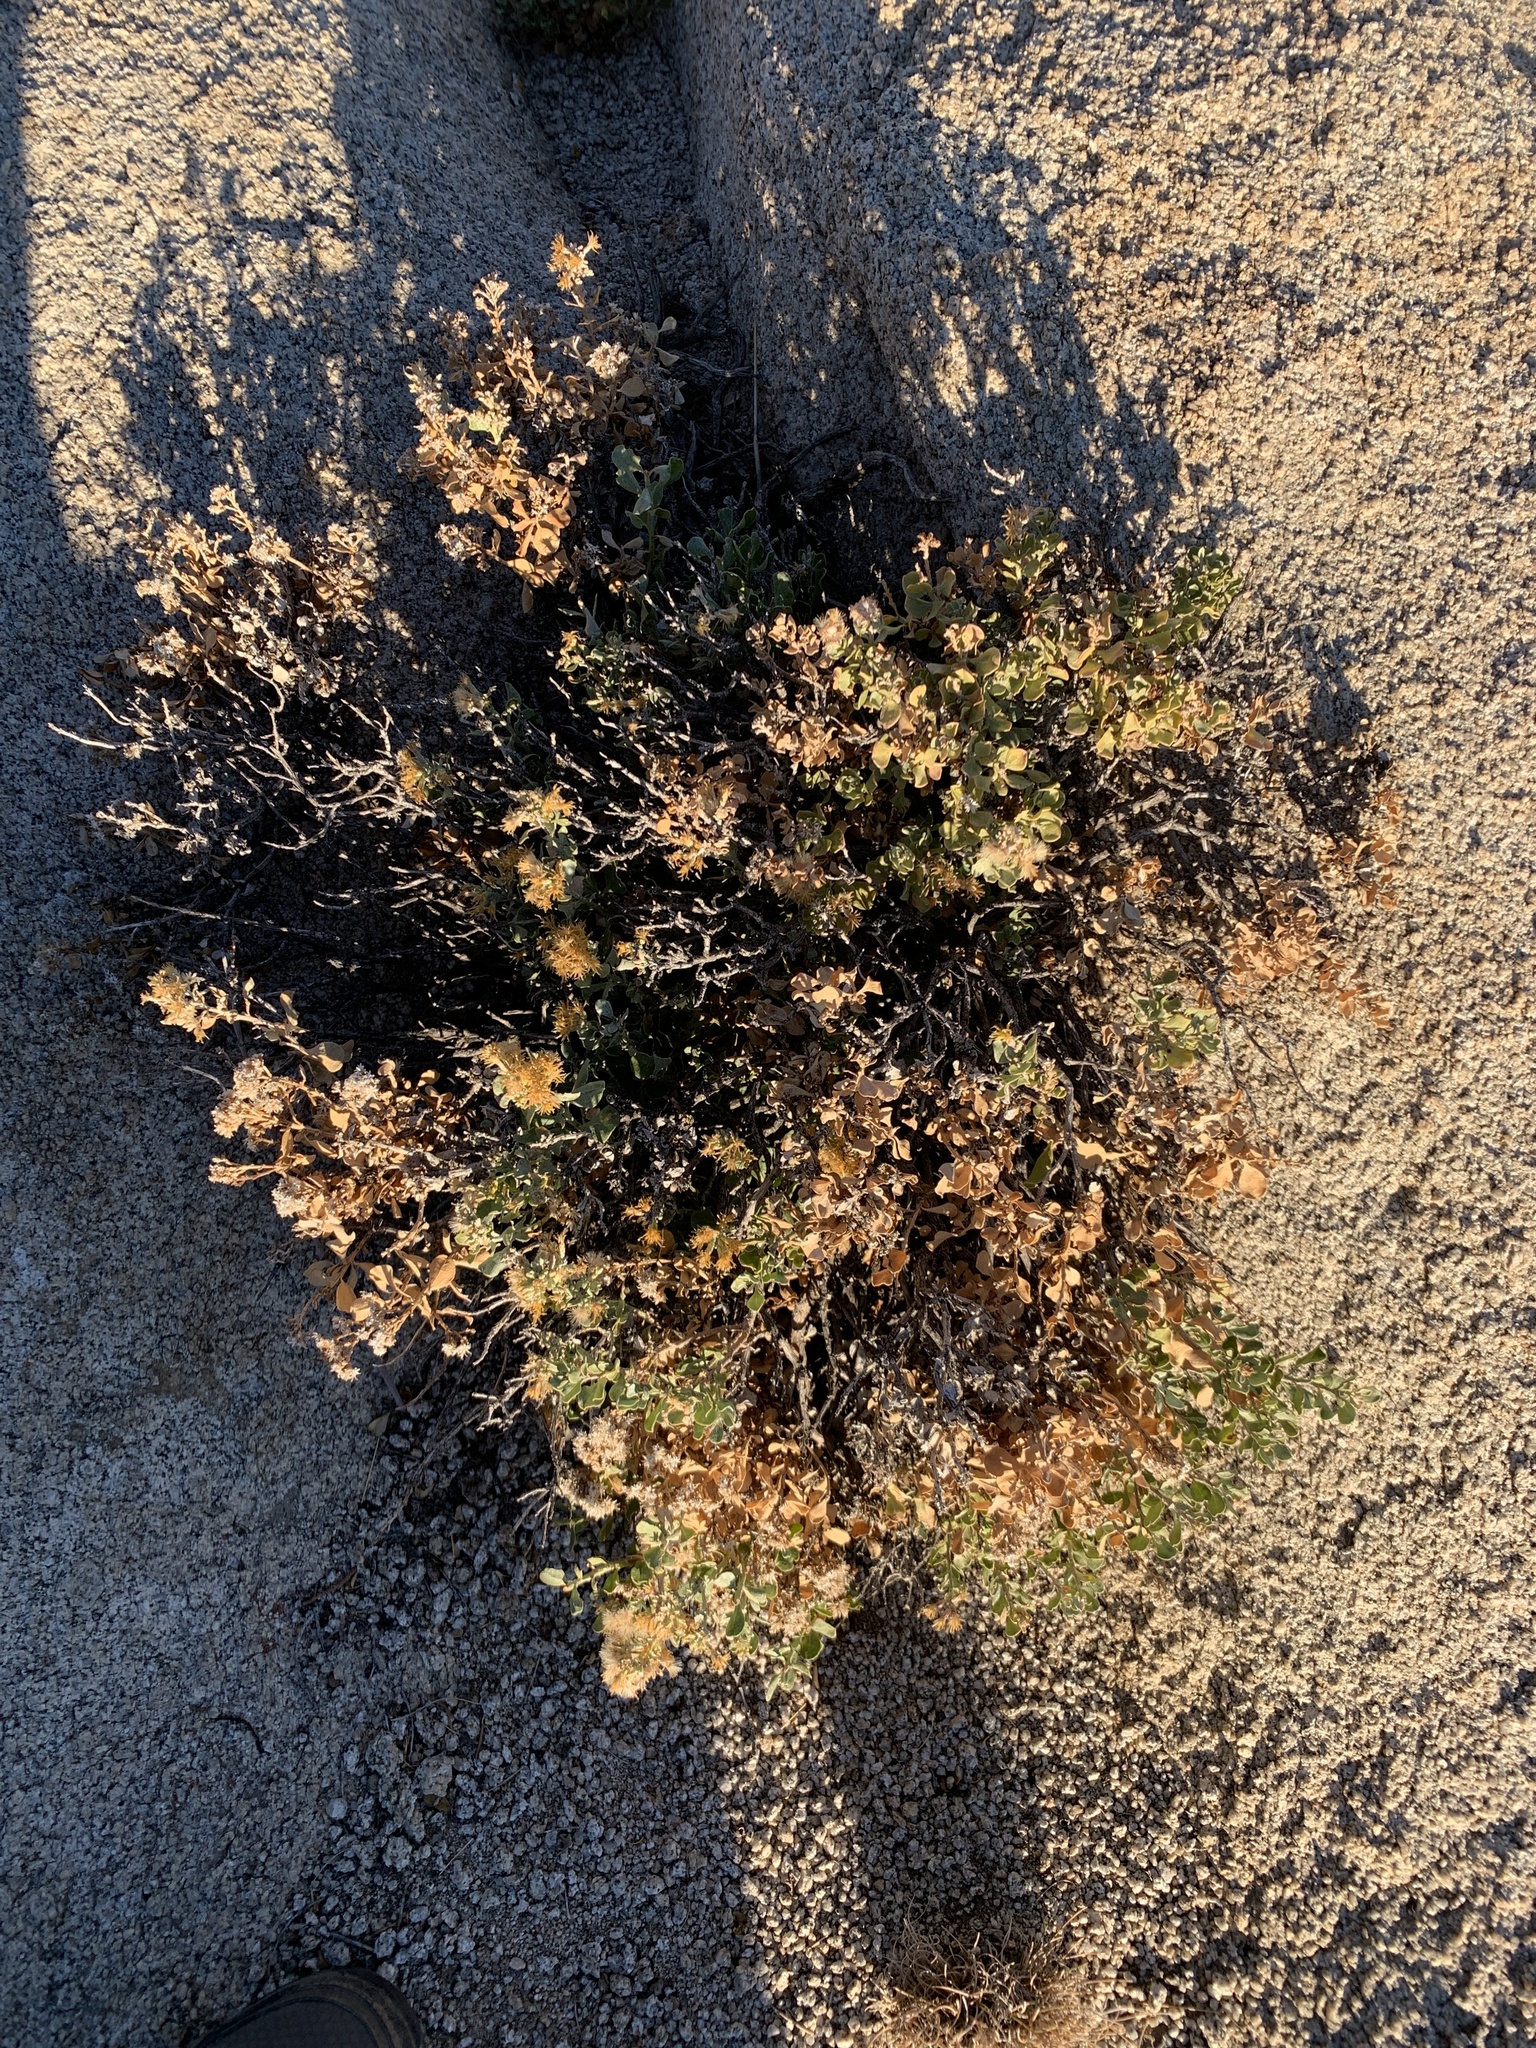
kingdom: Plantae
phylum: Tracheophyta
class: Magnoliopsida
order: Asterales
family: Asteraceae
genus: Ericameria
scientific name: Ericameria cuneata
